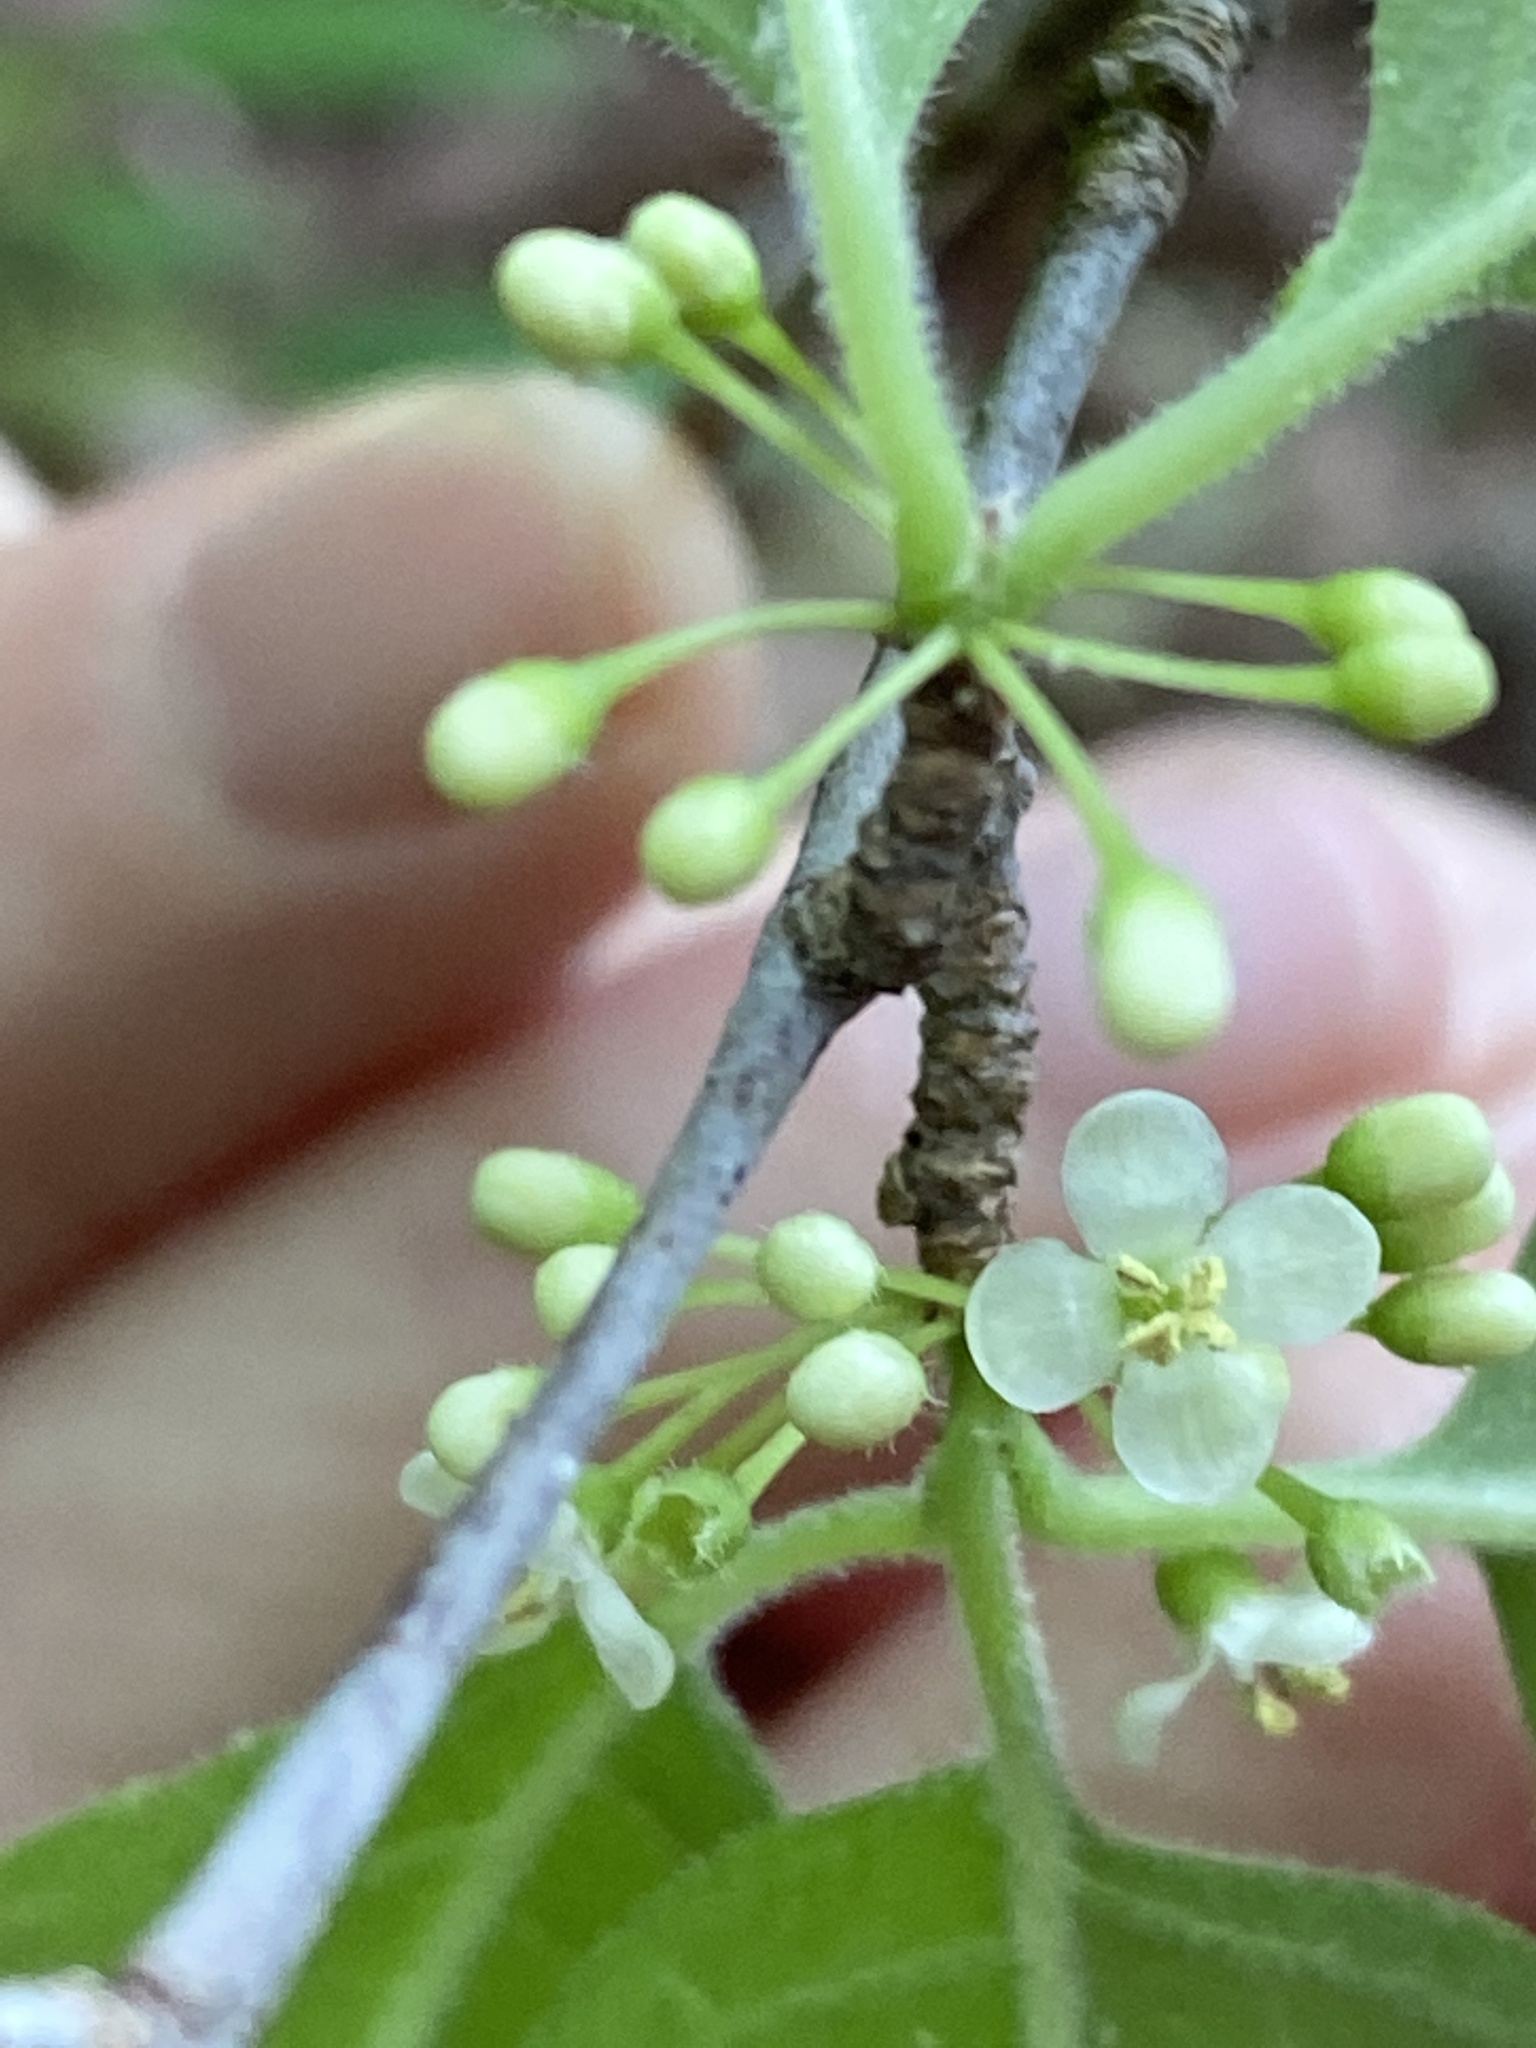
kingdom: Plantae
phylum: Tracheophyta
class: Magnoliopsida
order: Aquifoliales
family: Aquifoliaceae
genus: Ilex
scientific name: Ilex ambigua
